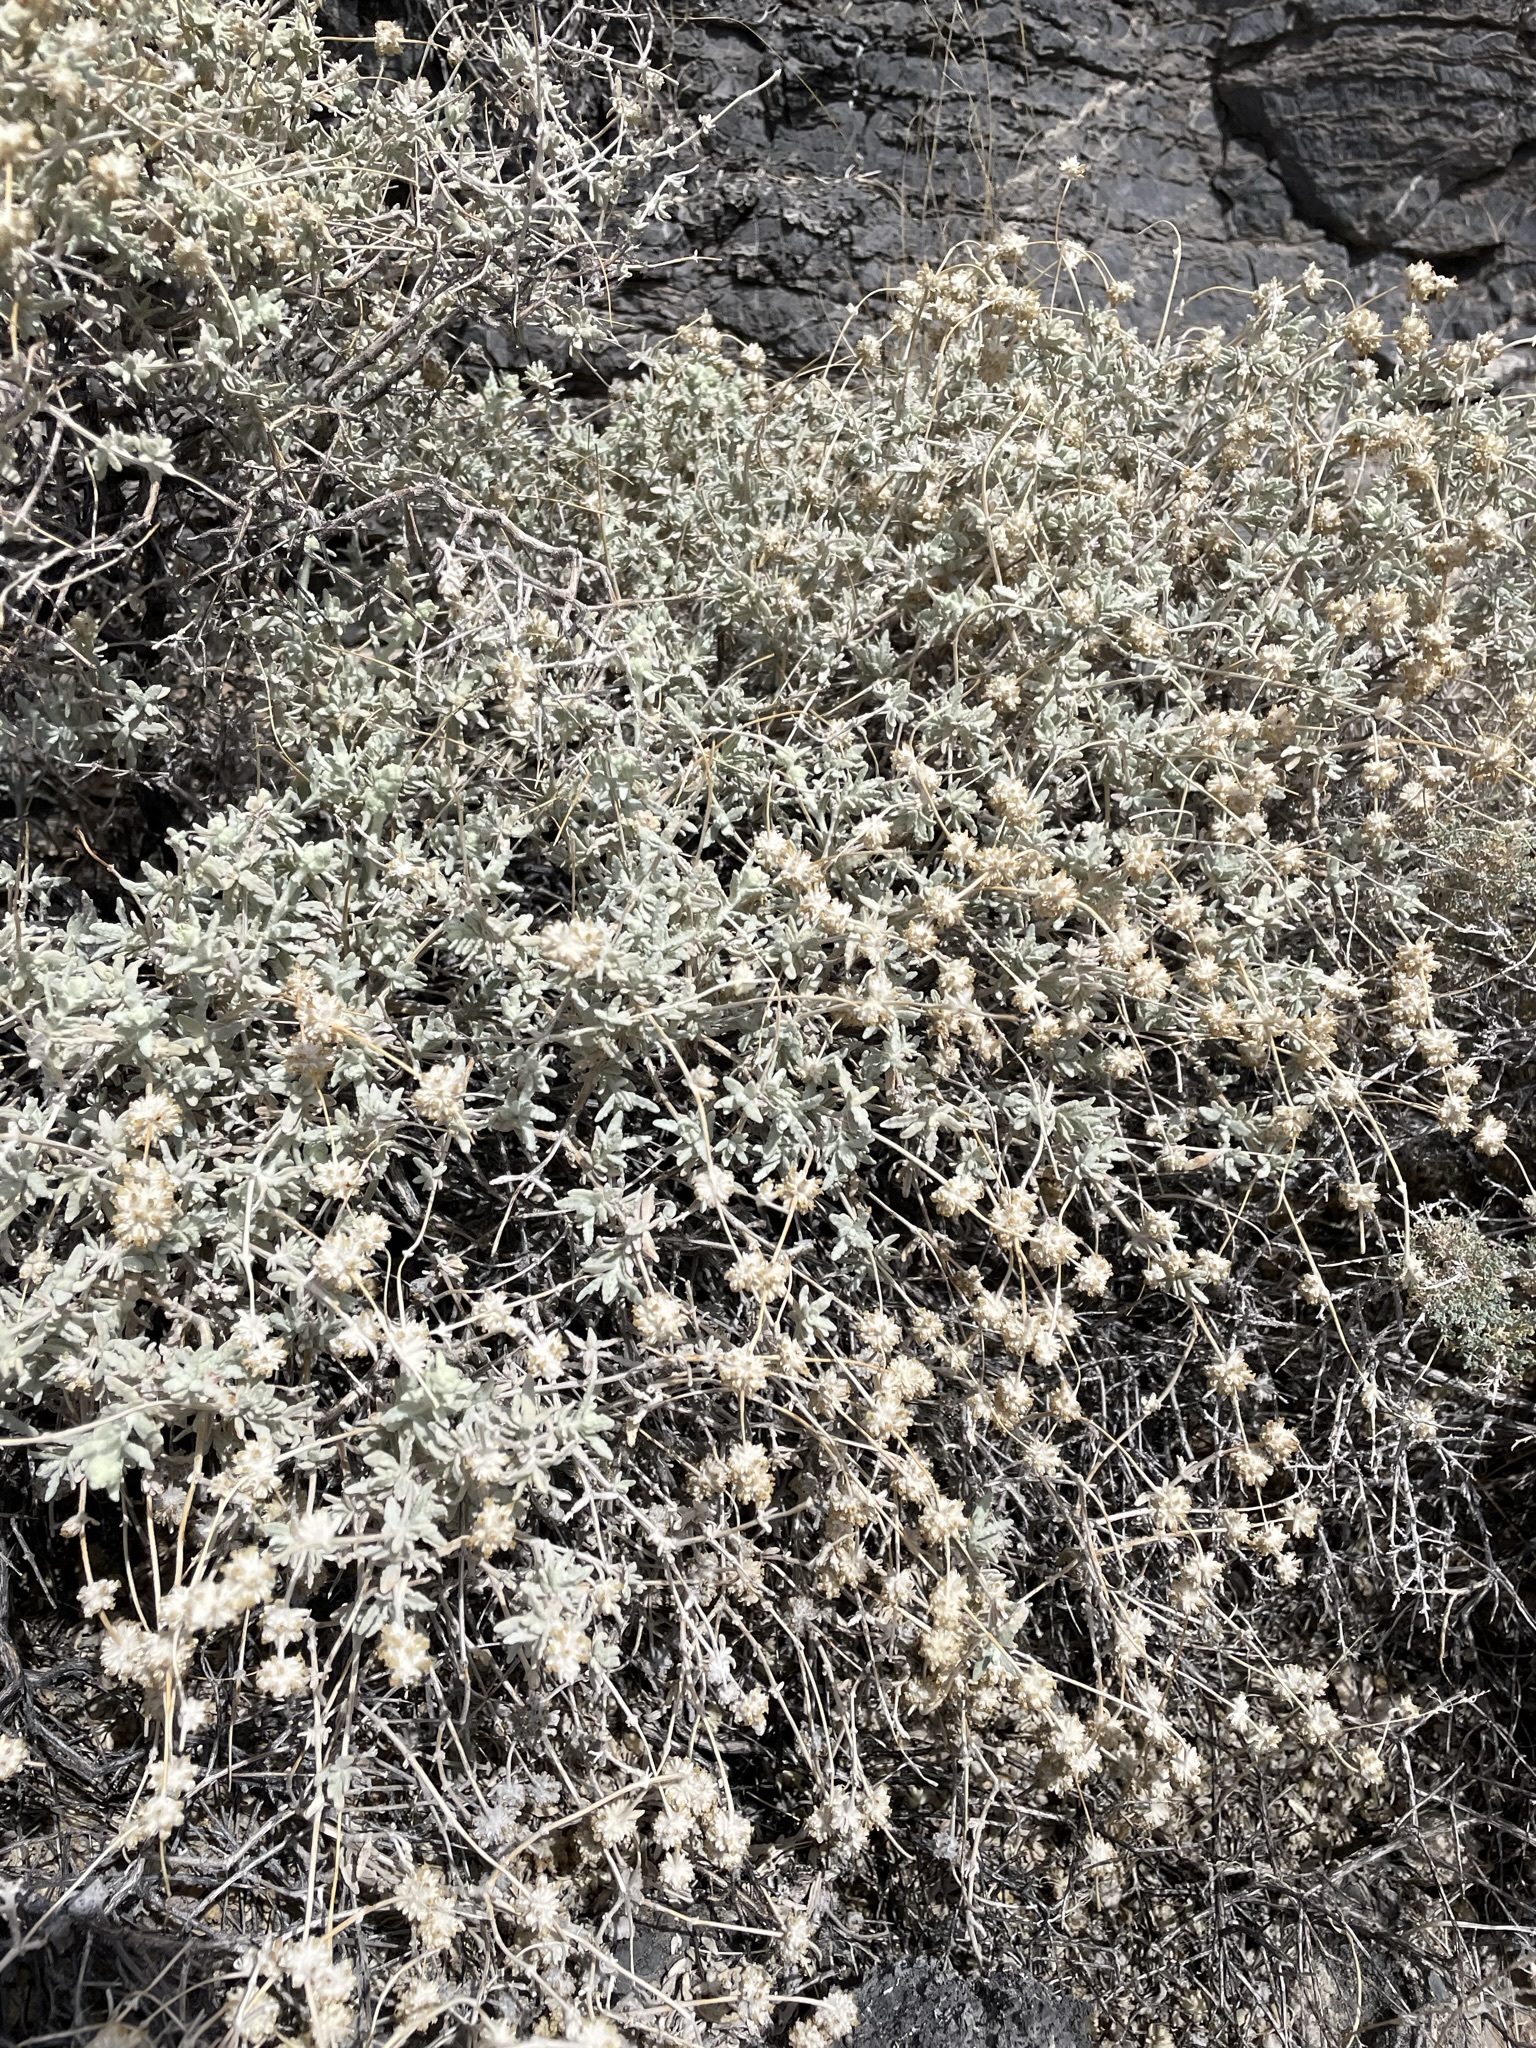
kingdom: Plantae
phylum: Tracheophyta
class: Magnoliopsida
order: Lamiales
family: Scrophulariaceae
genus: Buddleja
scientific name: Buddleja utahensis
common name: Utah butterfly-bush
